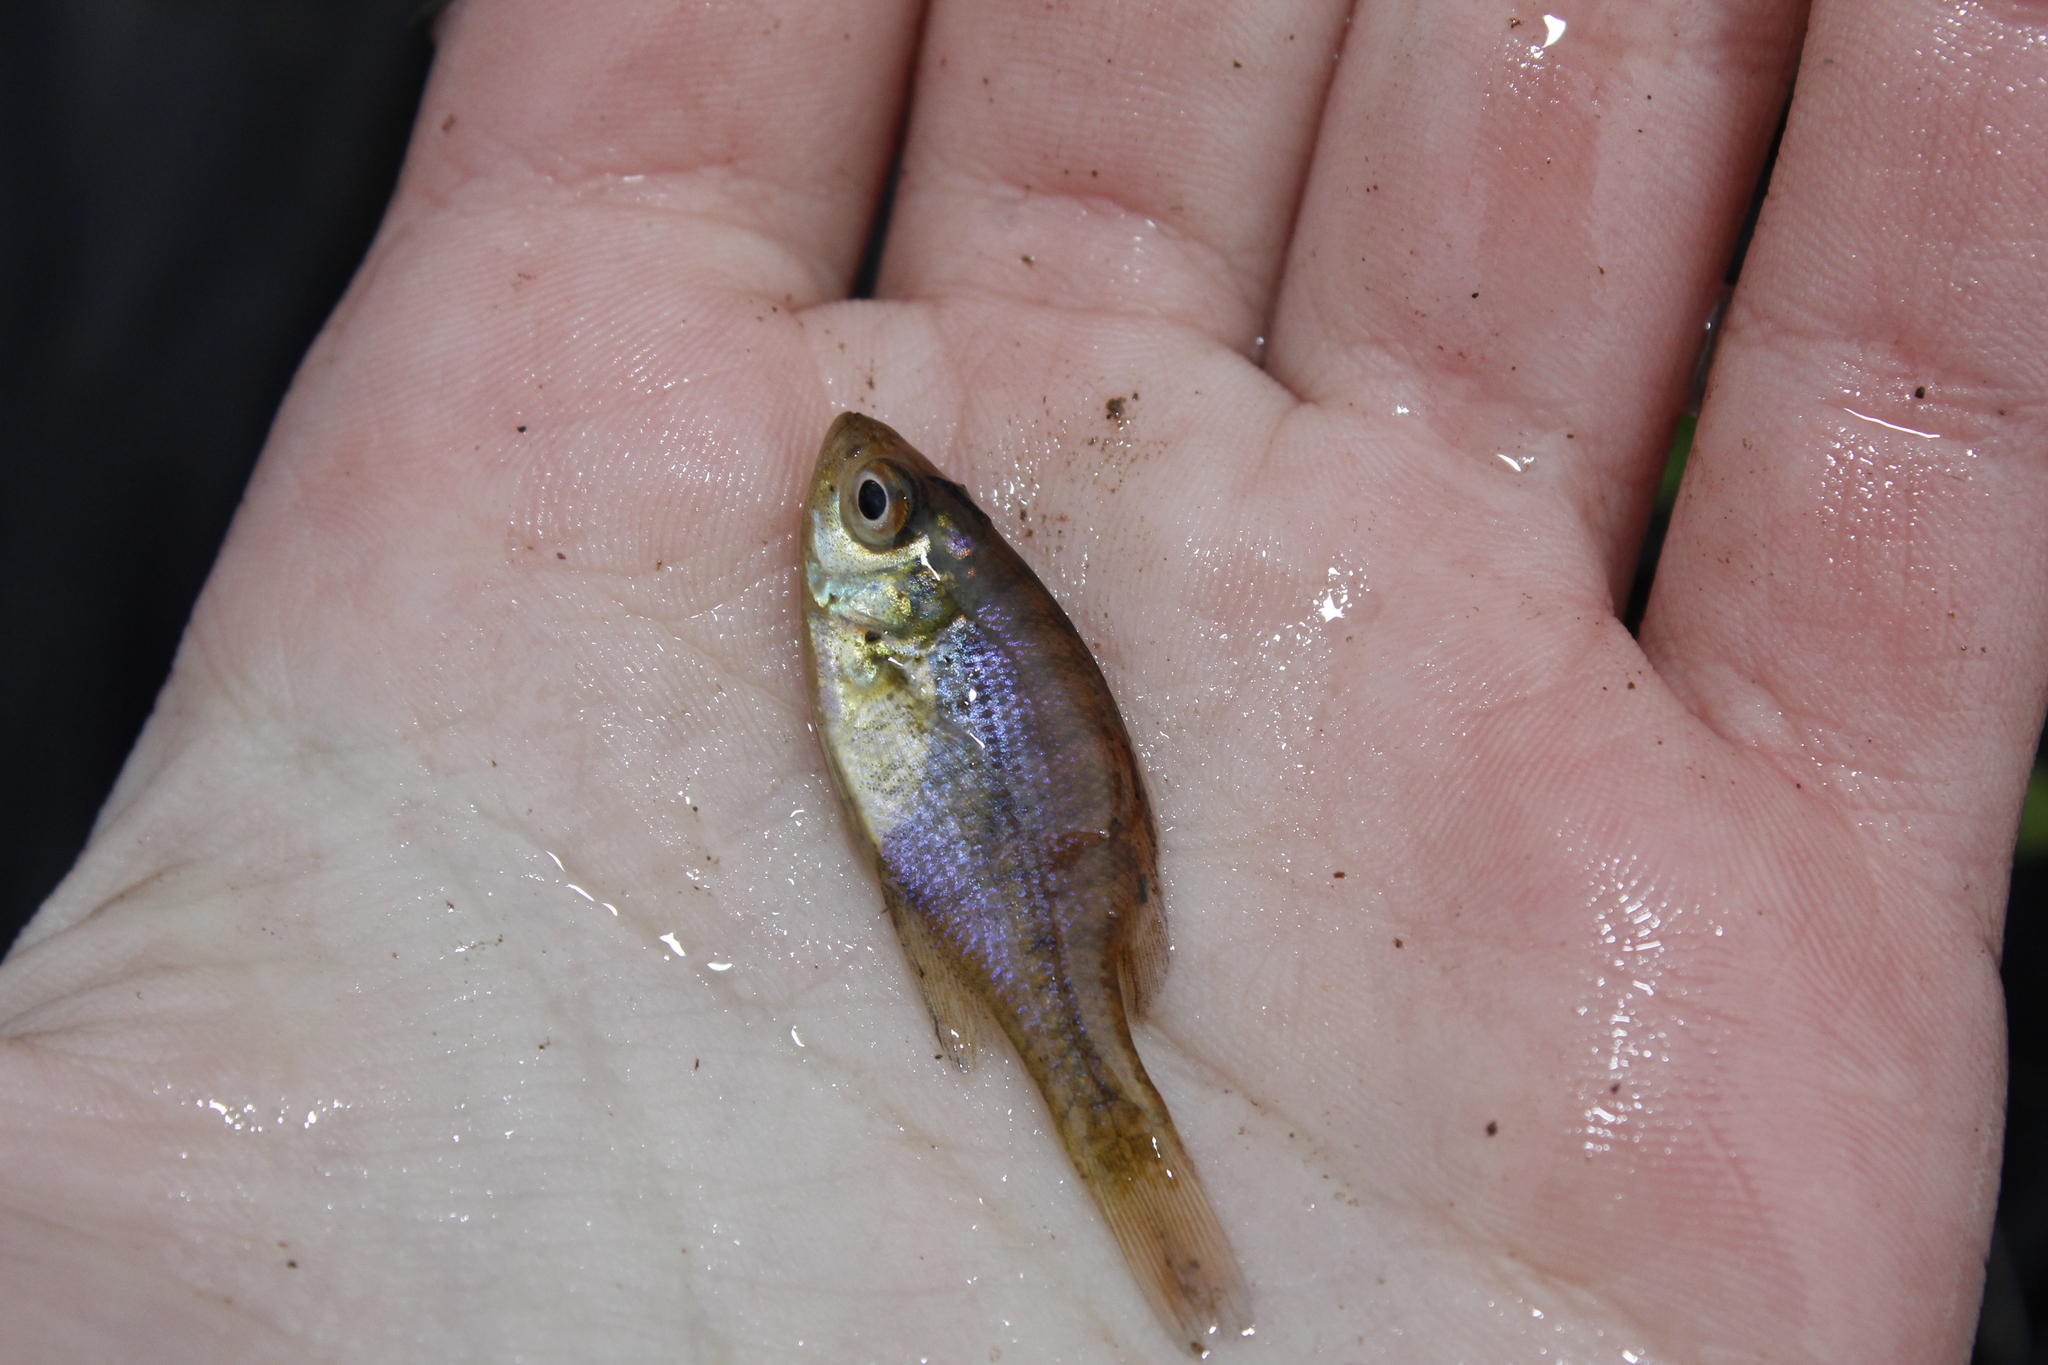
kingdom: Animalia
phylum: Chordata
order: Perciformes
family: Centrarchidae
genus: Lepomis
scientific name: Lepomis macrochirus
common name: Bluegill
